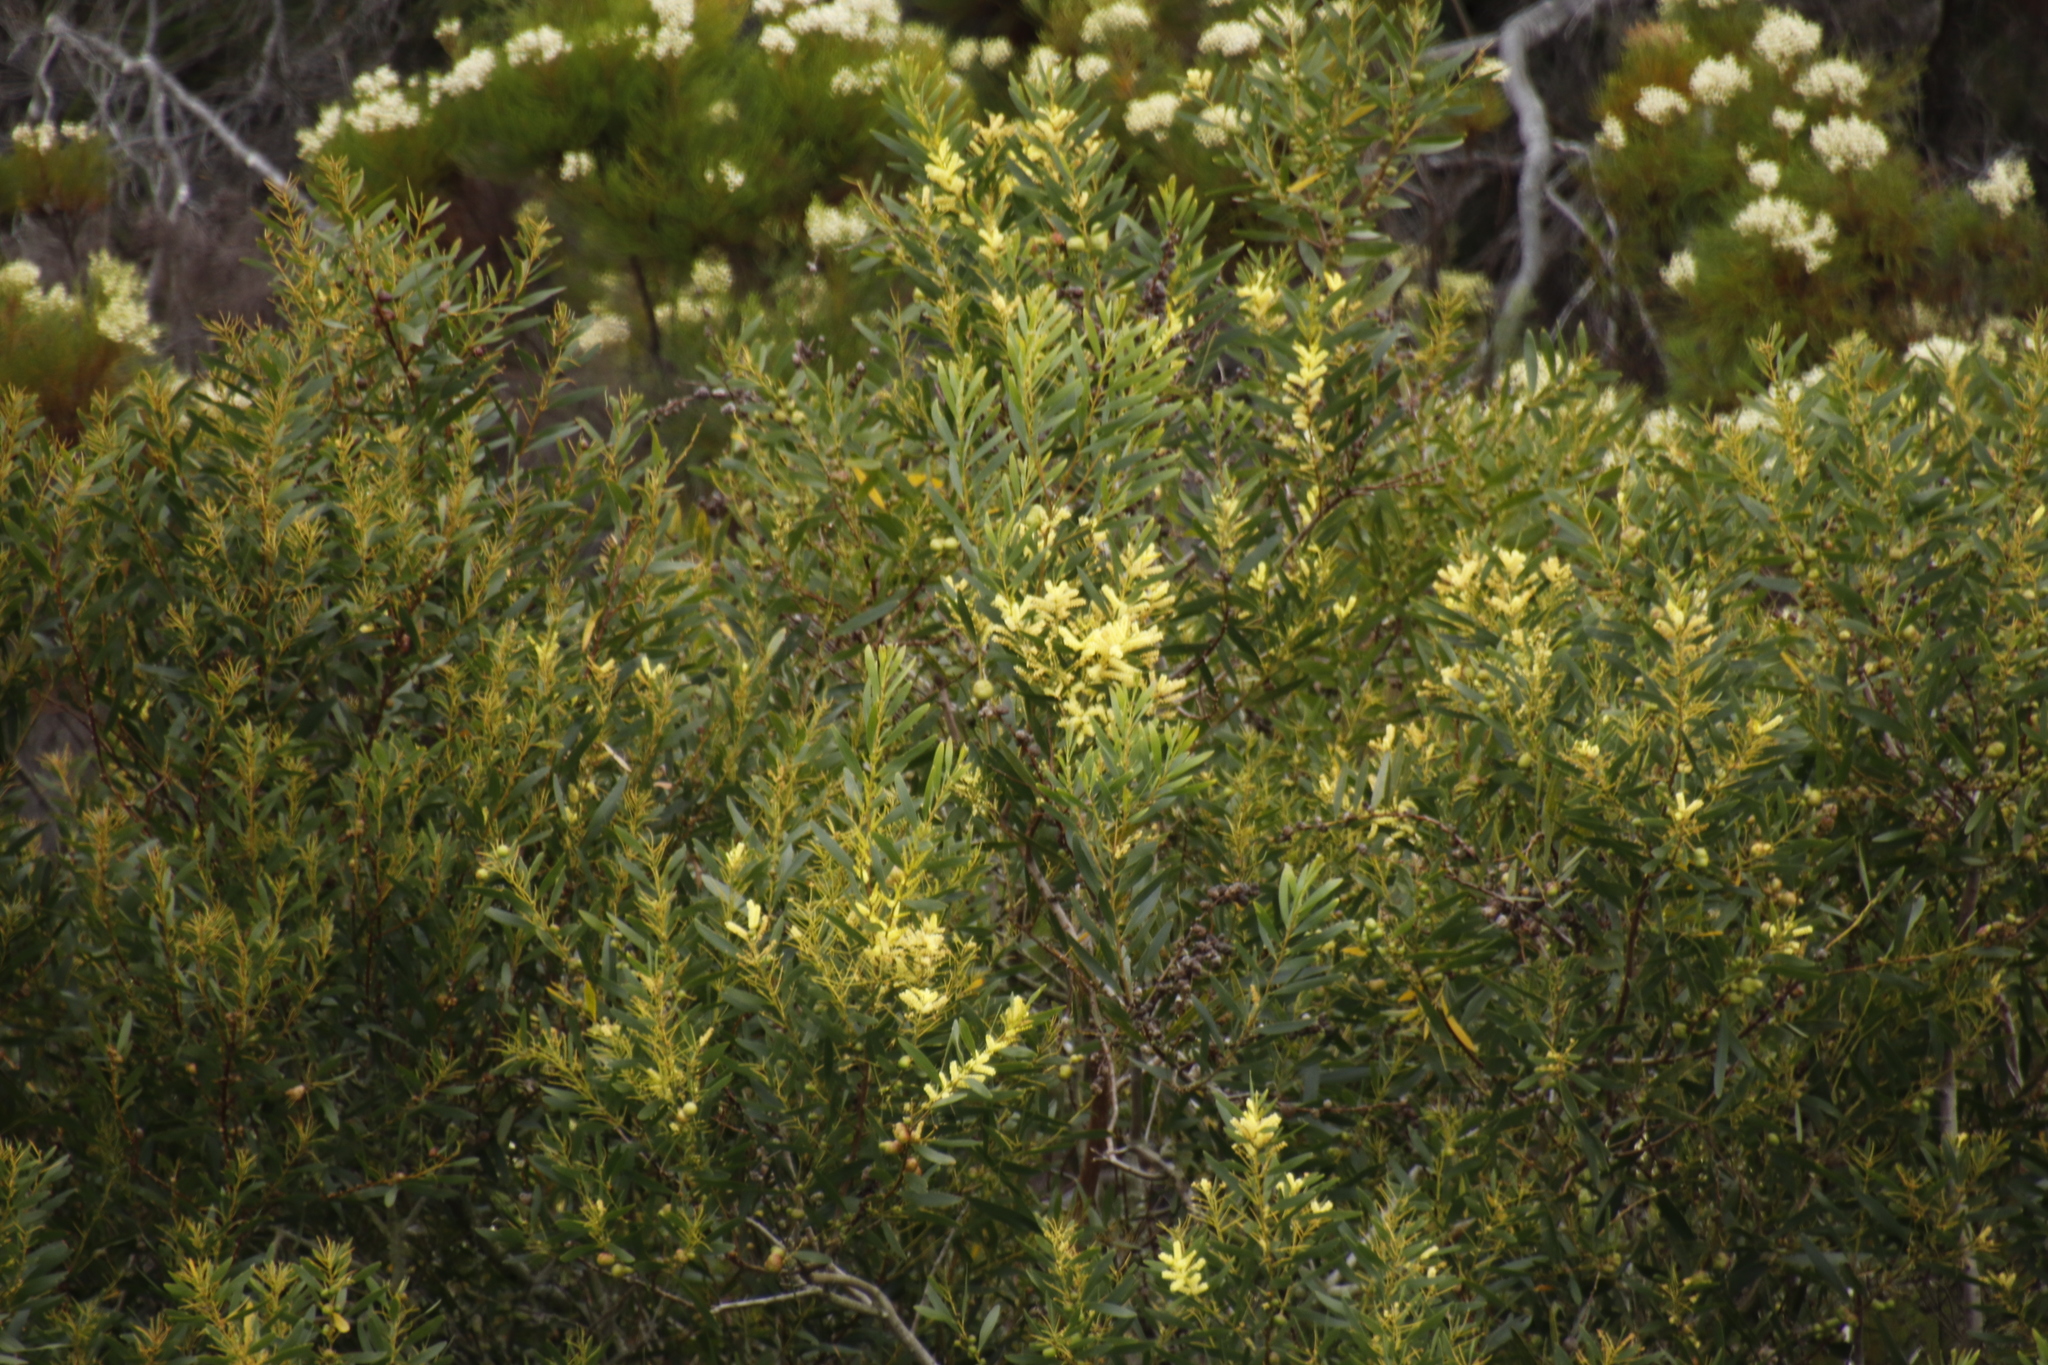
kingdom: Plantae
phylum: Tracheophyta
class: Magnoliopsida
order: Fabales
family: Fabaceae
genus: Acacia
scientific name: Acacia longifolia
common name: Sydney golden wattle
